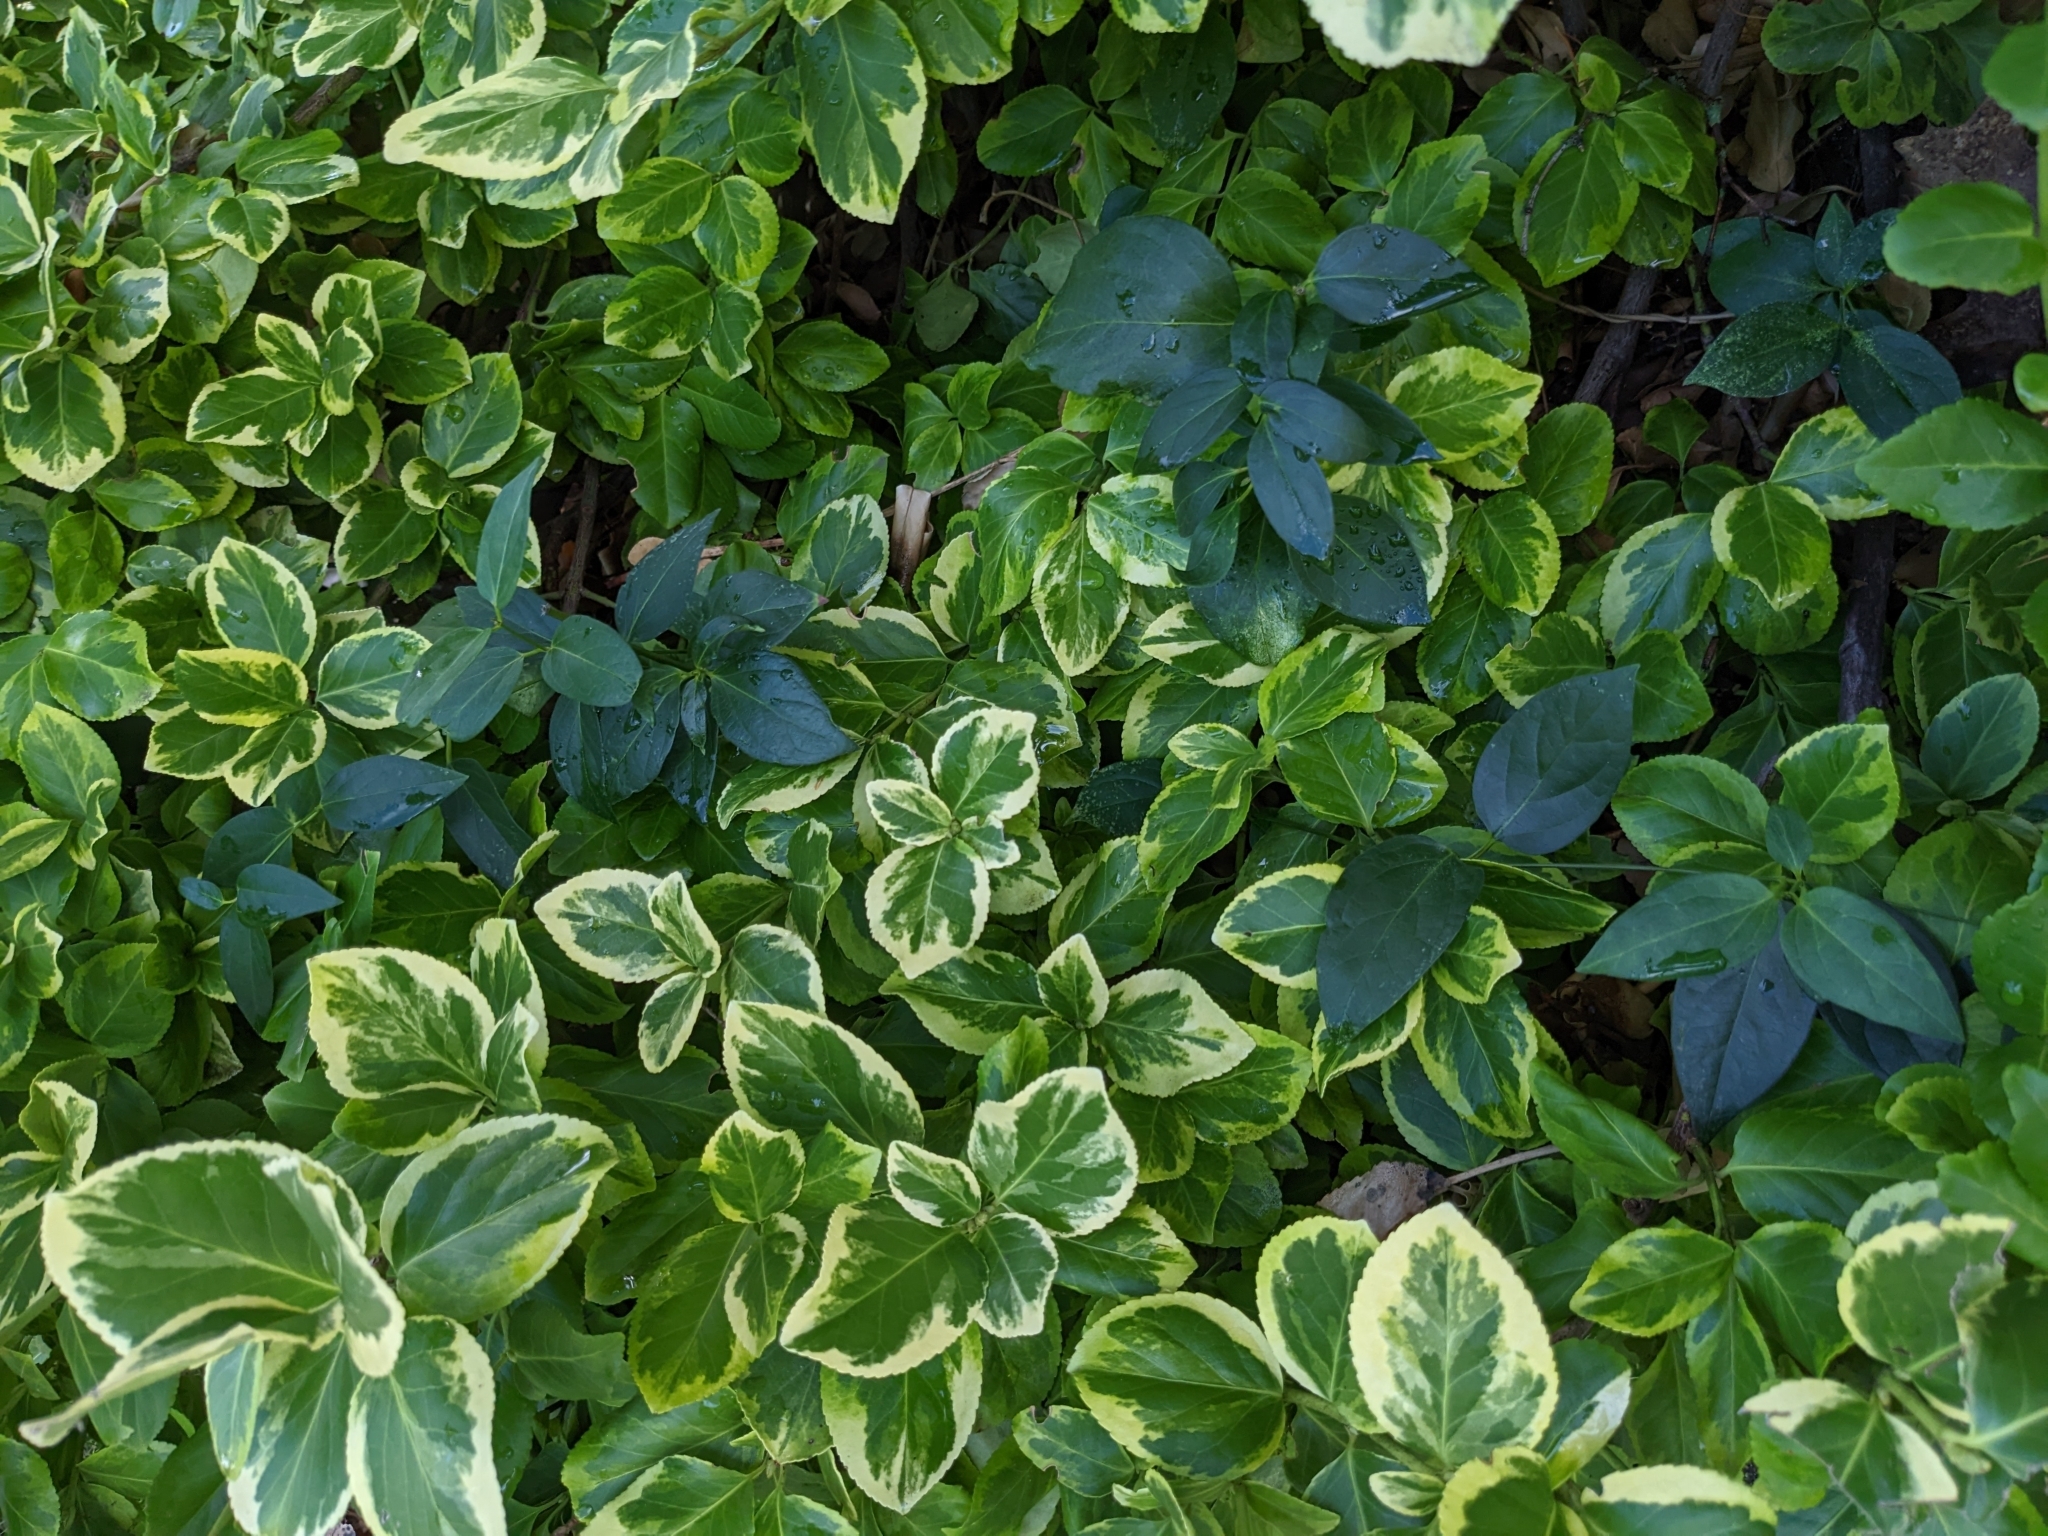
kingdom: Plantae
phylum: Tracheophyta
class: Magnoliopsida
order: Gentianales
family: Apocynaceae
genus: Vincetoxicum
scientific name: Vincetoxicum nigrum
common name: Black swallow-wort
